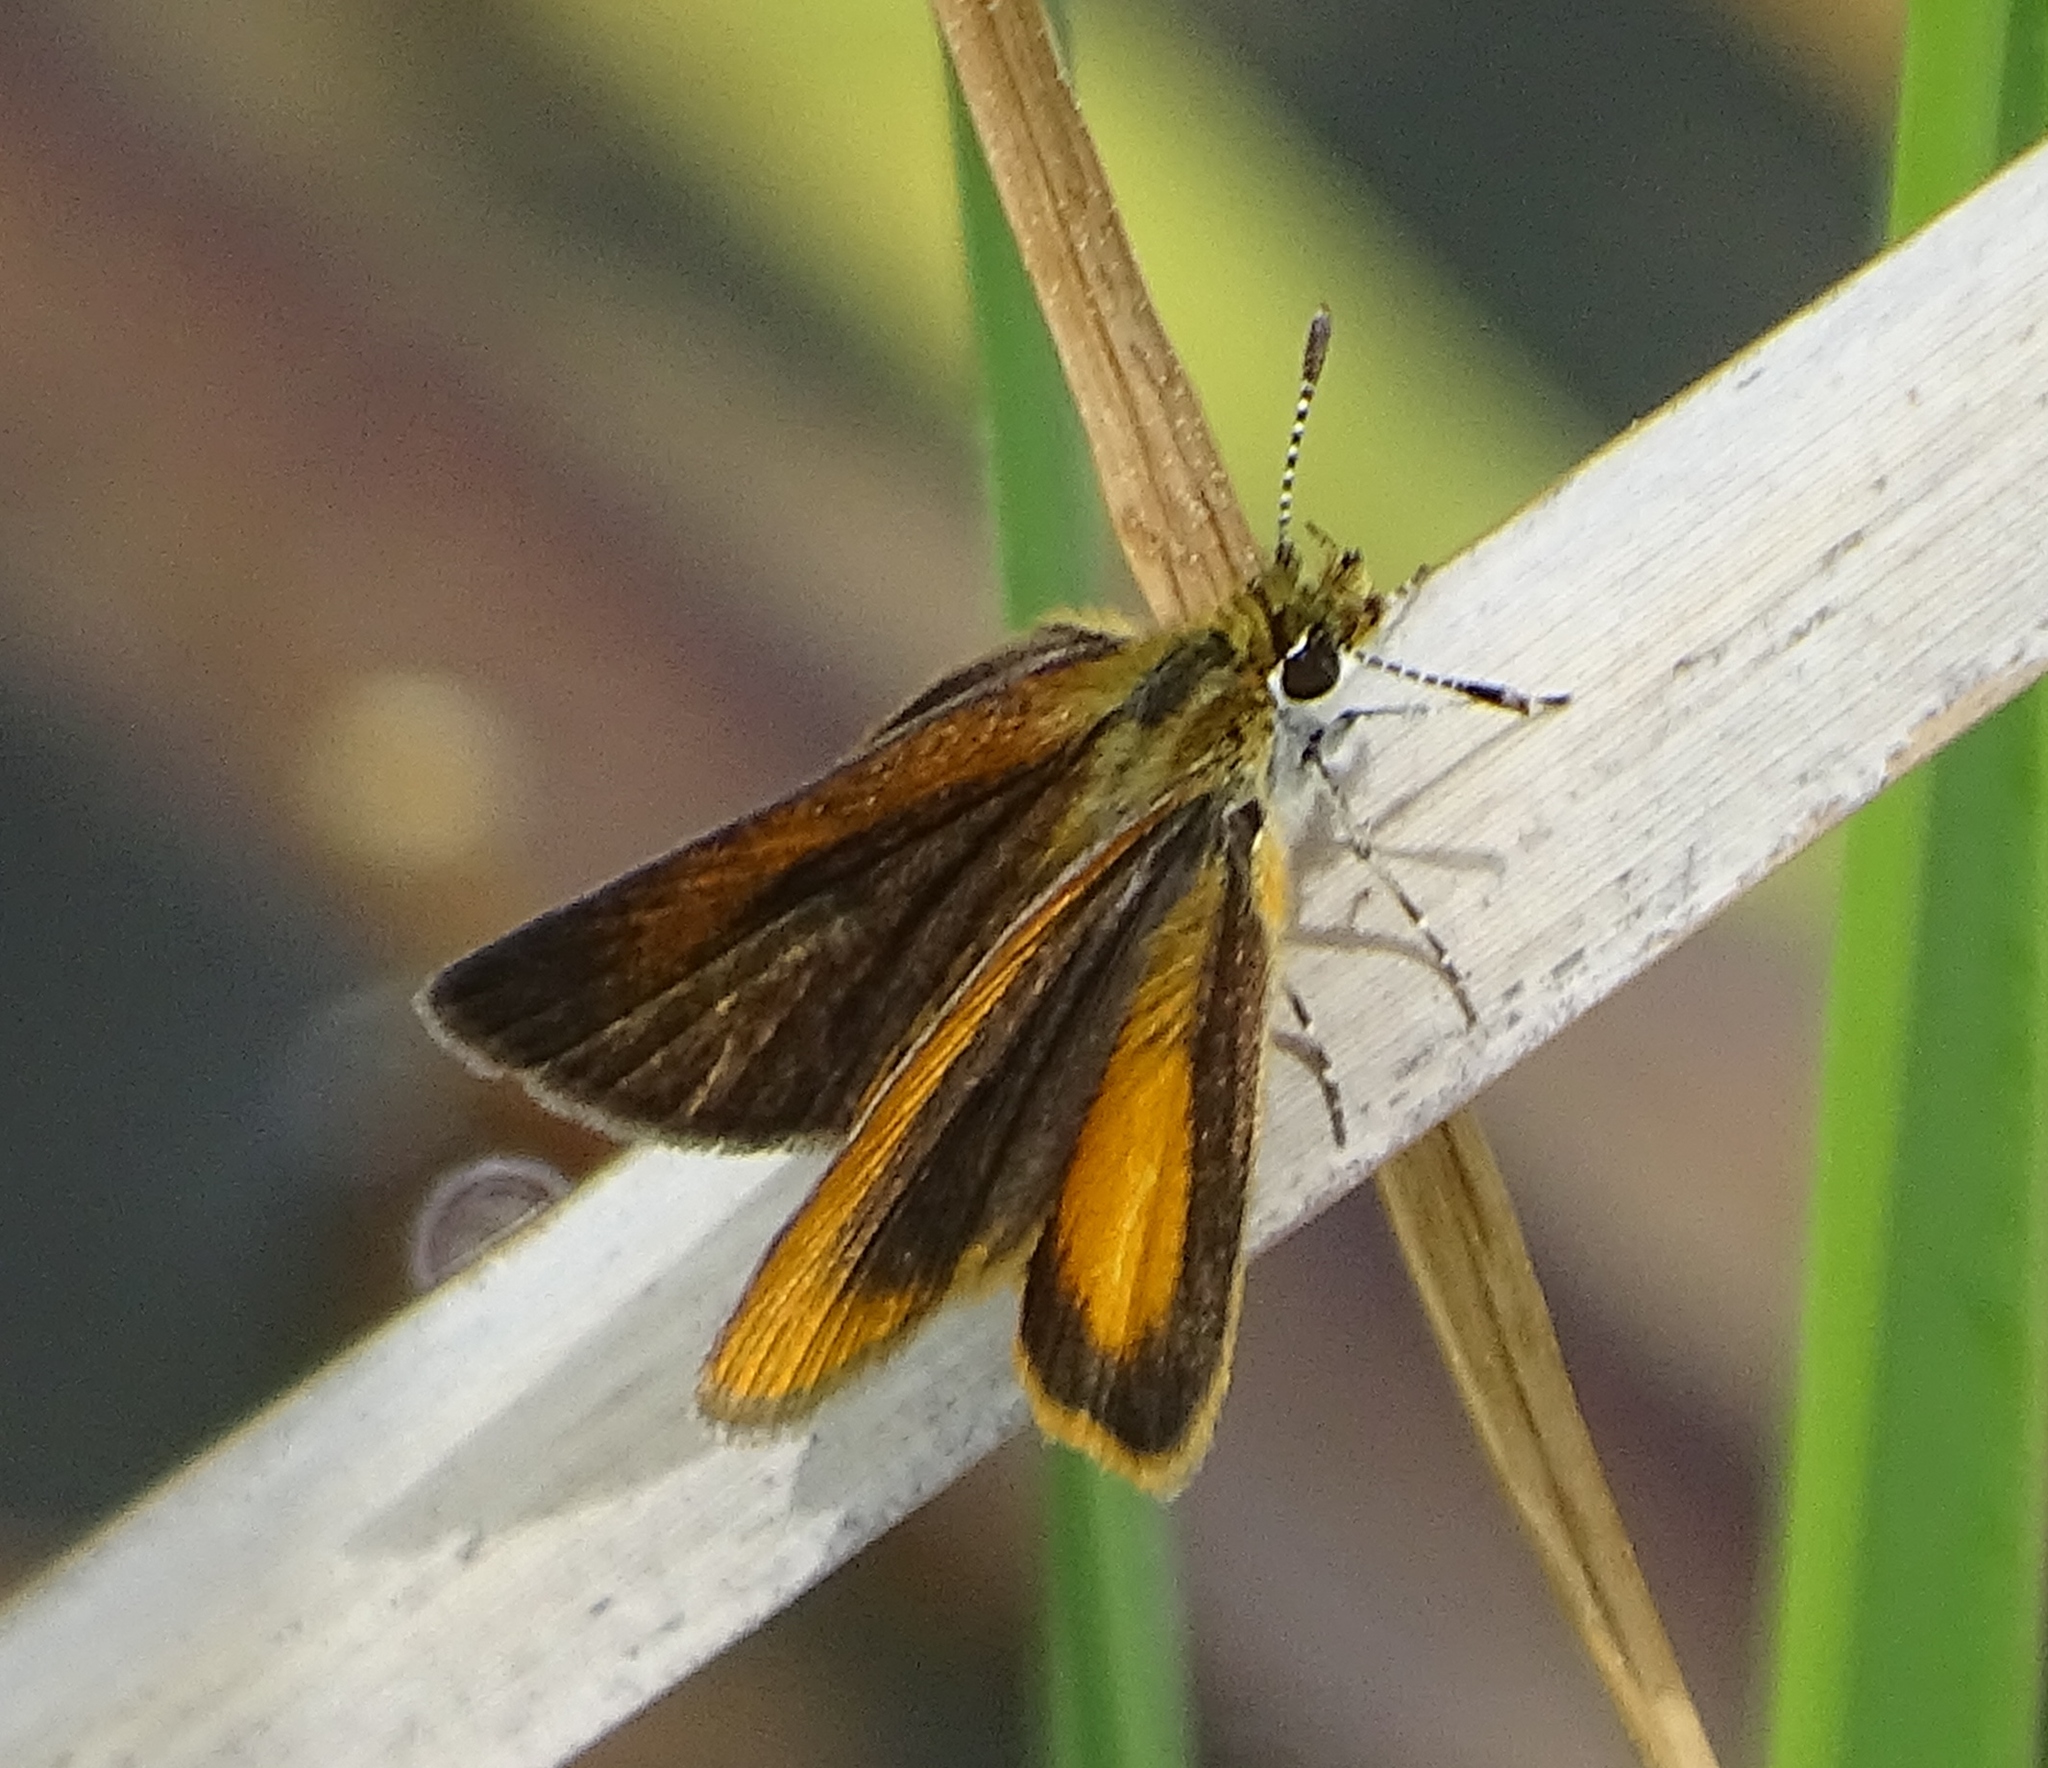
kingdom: Animalia
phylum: Arthropoda
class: Insecta
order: Lepidoptera
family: Hesperiidae
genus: Ancyloxypha
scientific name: Ancyloxypha numitor
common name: Least skipper
